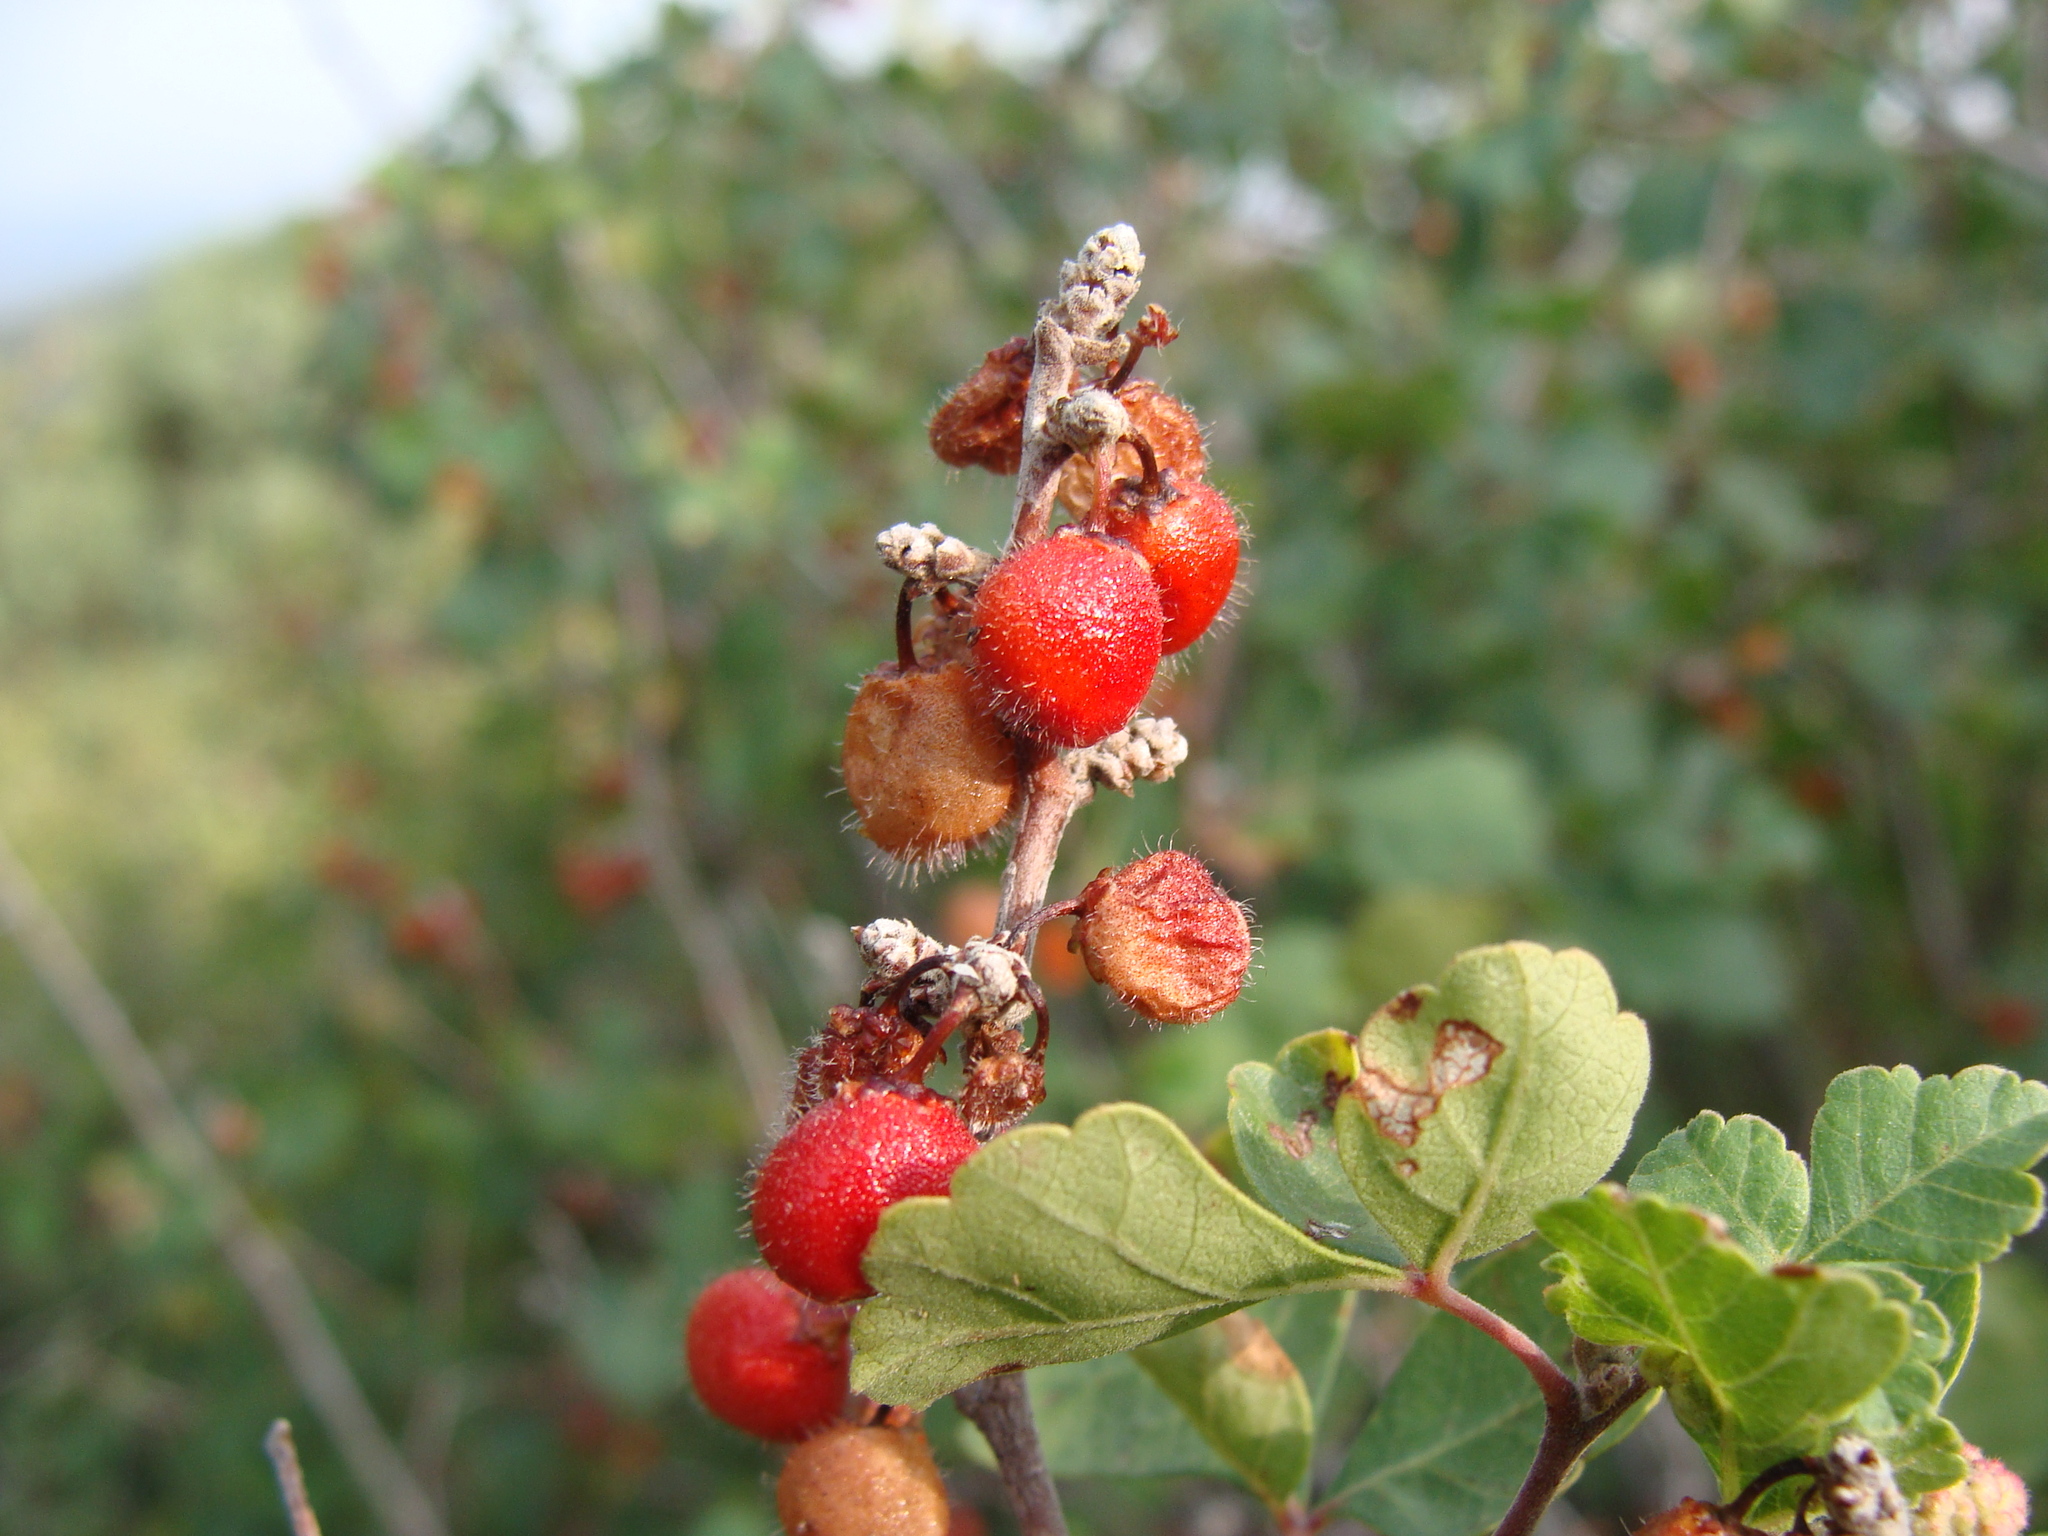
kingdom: Plantae
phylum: Tracheophyta
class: Magnoliopsida
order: Sapindales
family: Anacardiaceae
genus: Rhus
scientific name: Rhus aromatica
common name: Aromatic sumac
